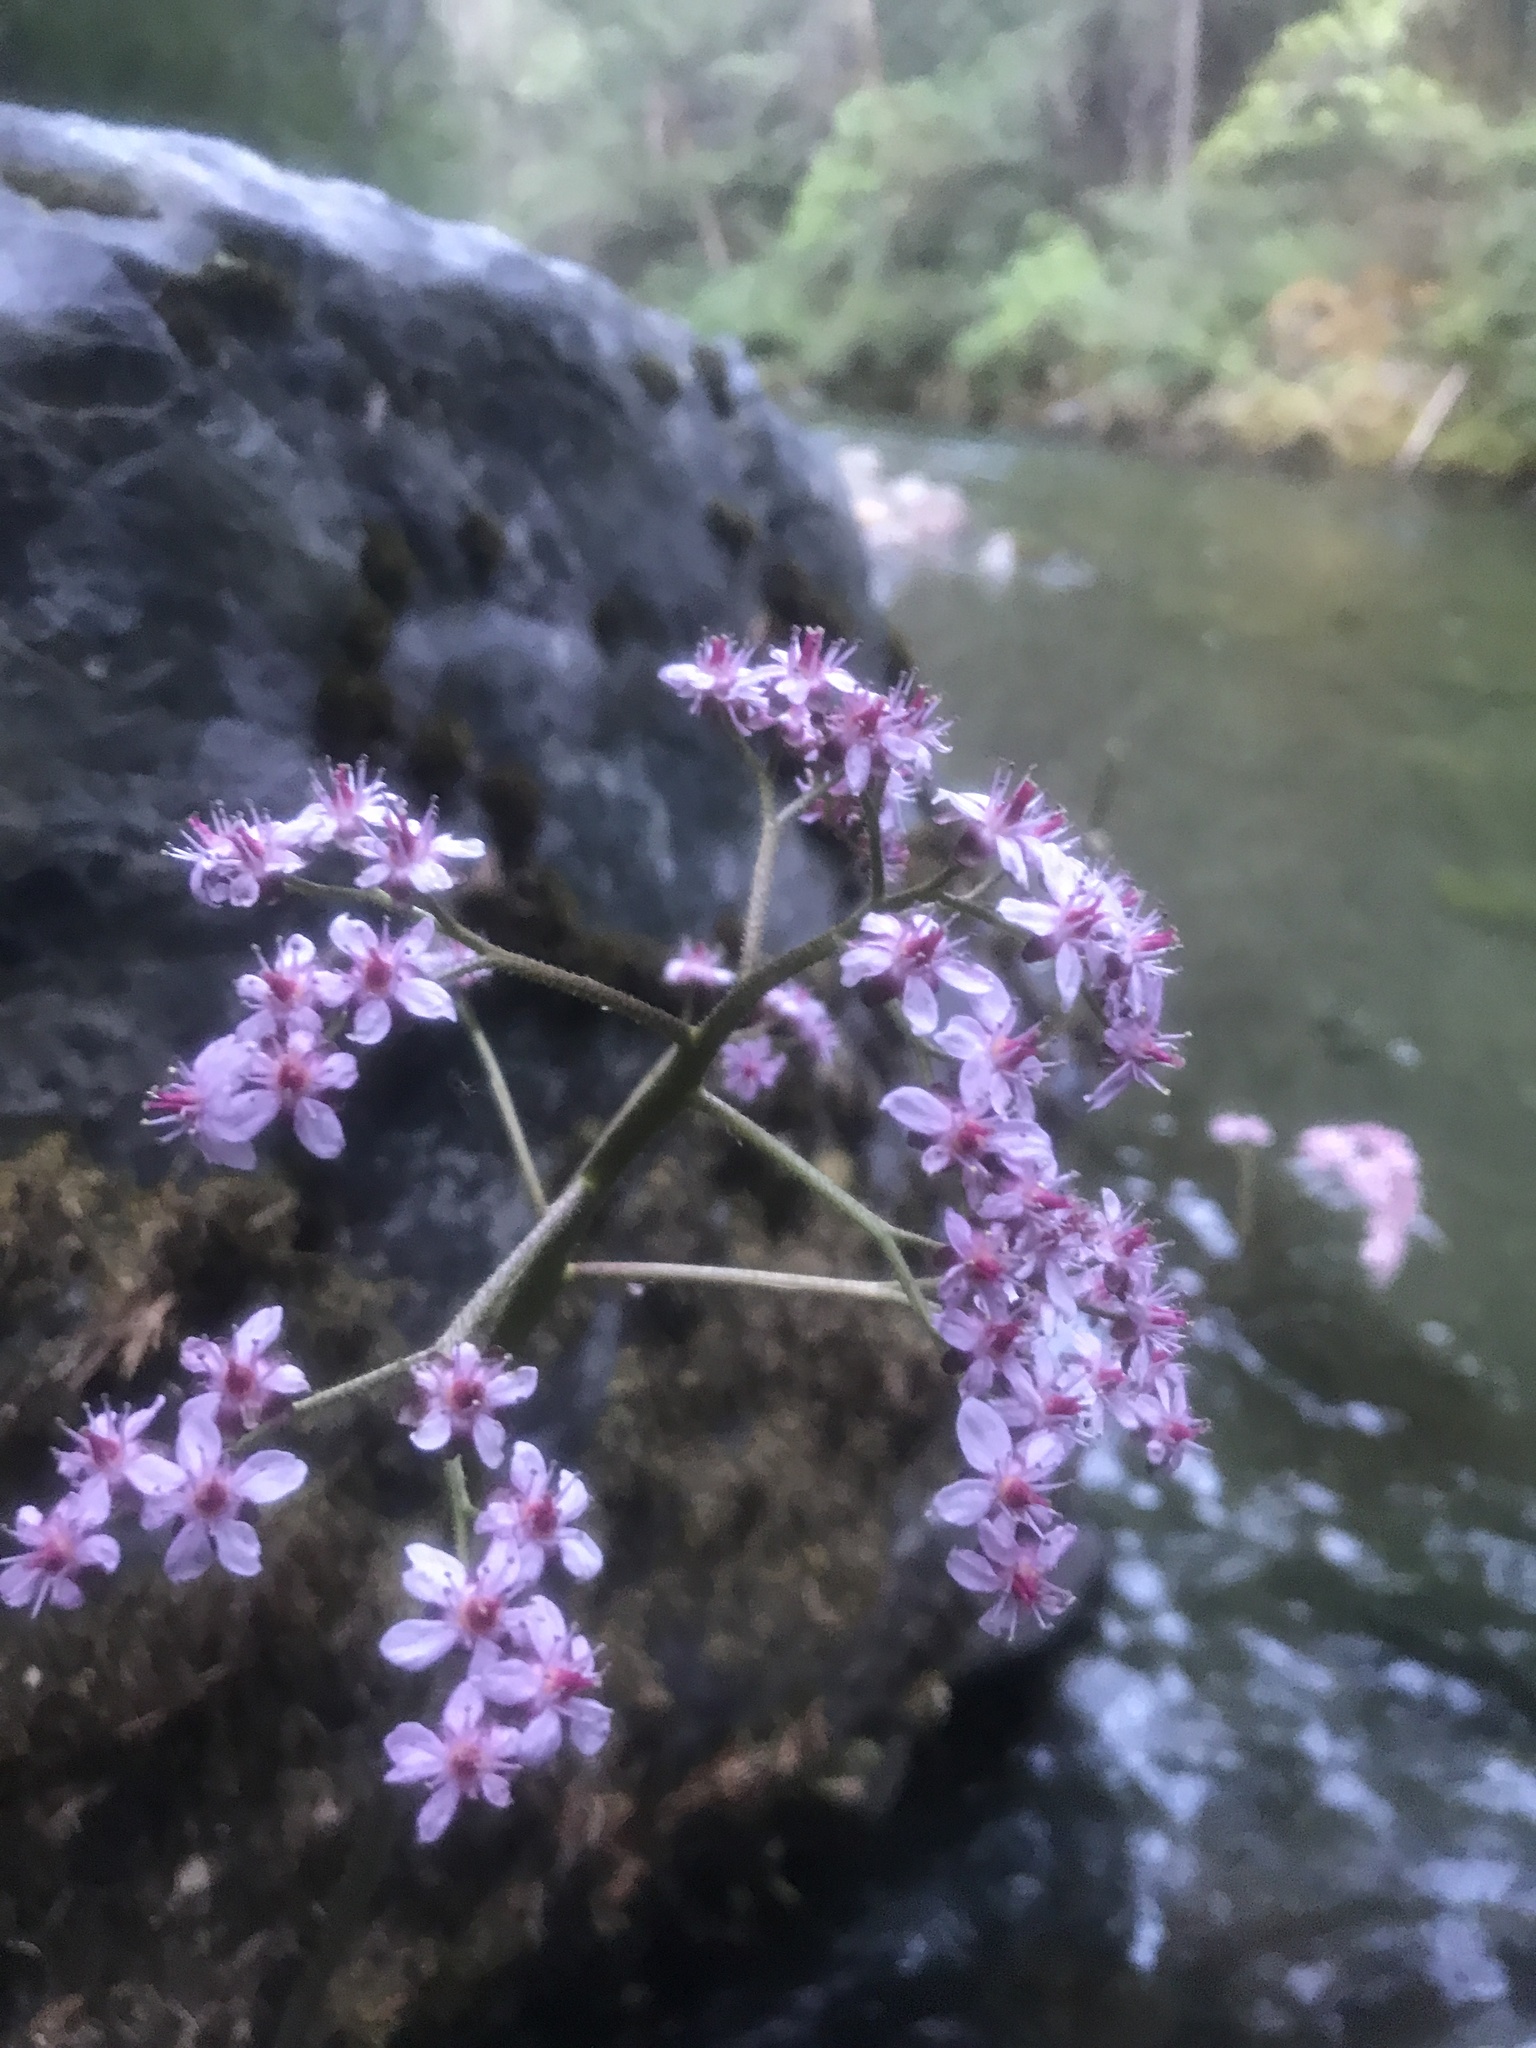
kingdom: Plantae
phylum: Tracheophyta
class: Magnoliopsida
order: Saxifragales
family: Saxifragaceae
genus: Darmera
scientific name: Darmera peltata
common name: Indian-rhubarb
